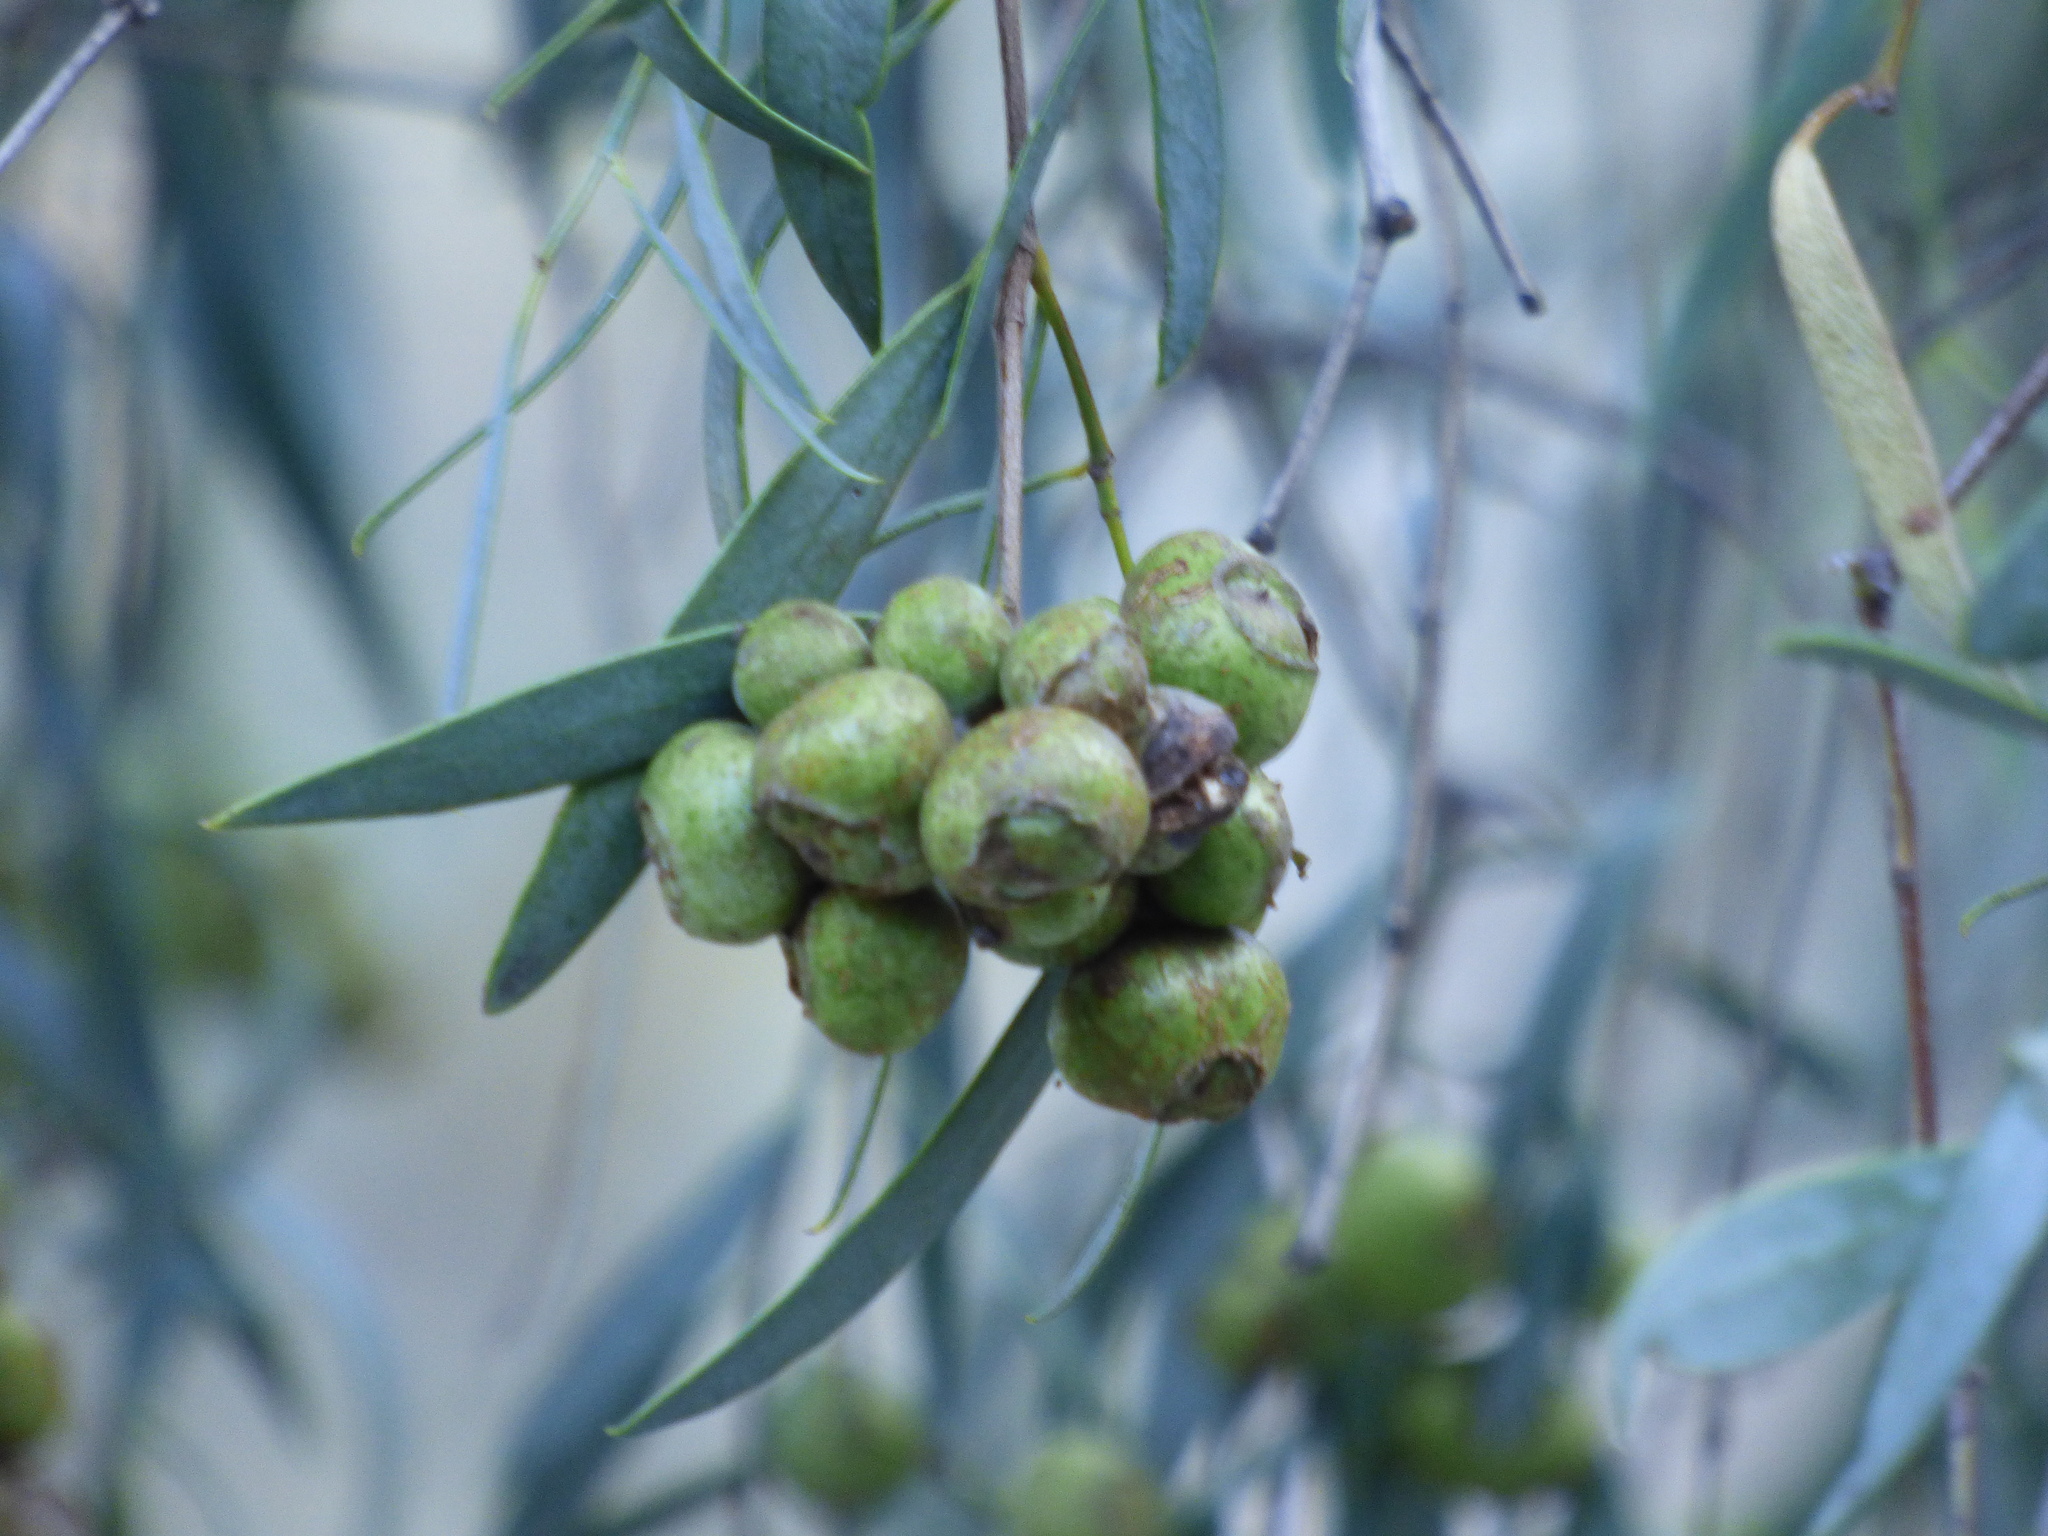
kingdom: Plantae
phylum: Tracheophyta
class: Magnoliopsida
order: Santalales
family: Santalaceae
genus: Santalum
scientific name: Santalum lanceolatum
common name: Ankwerley
